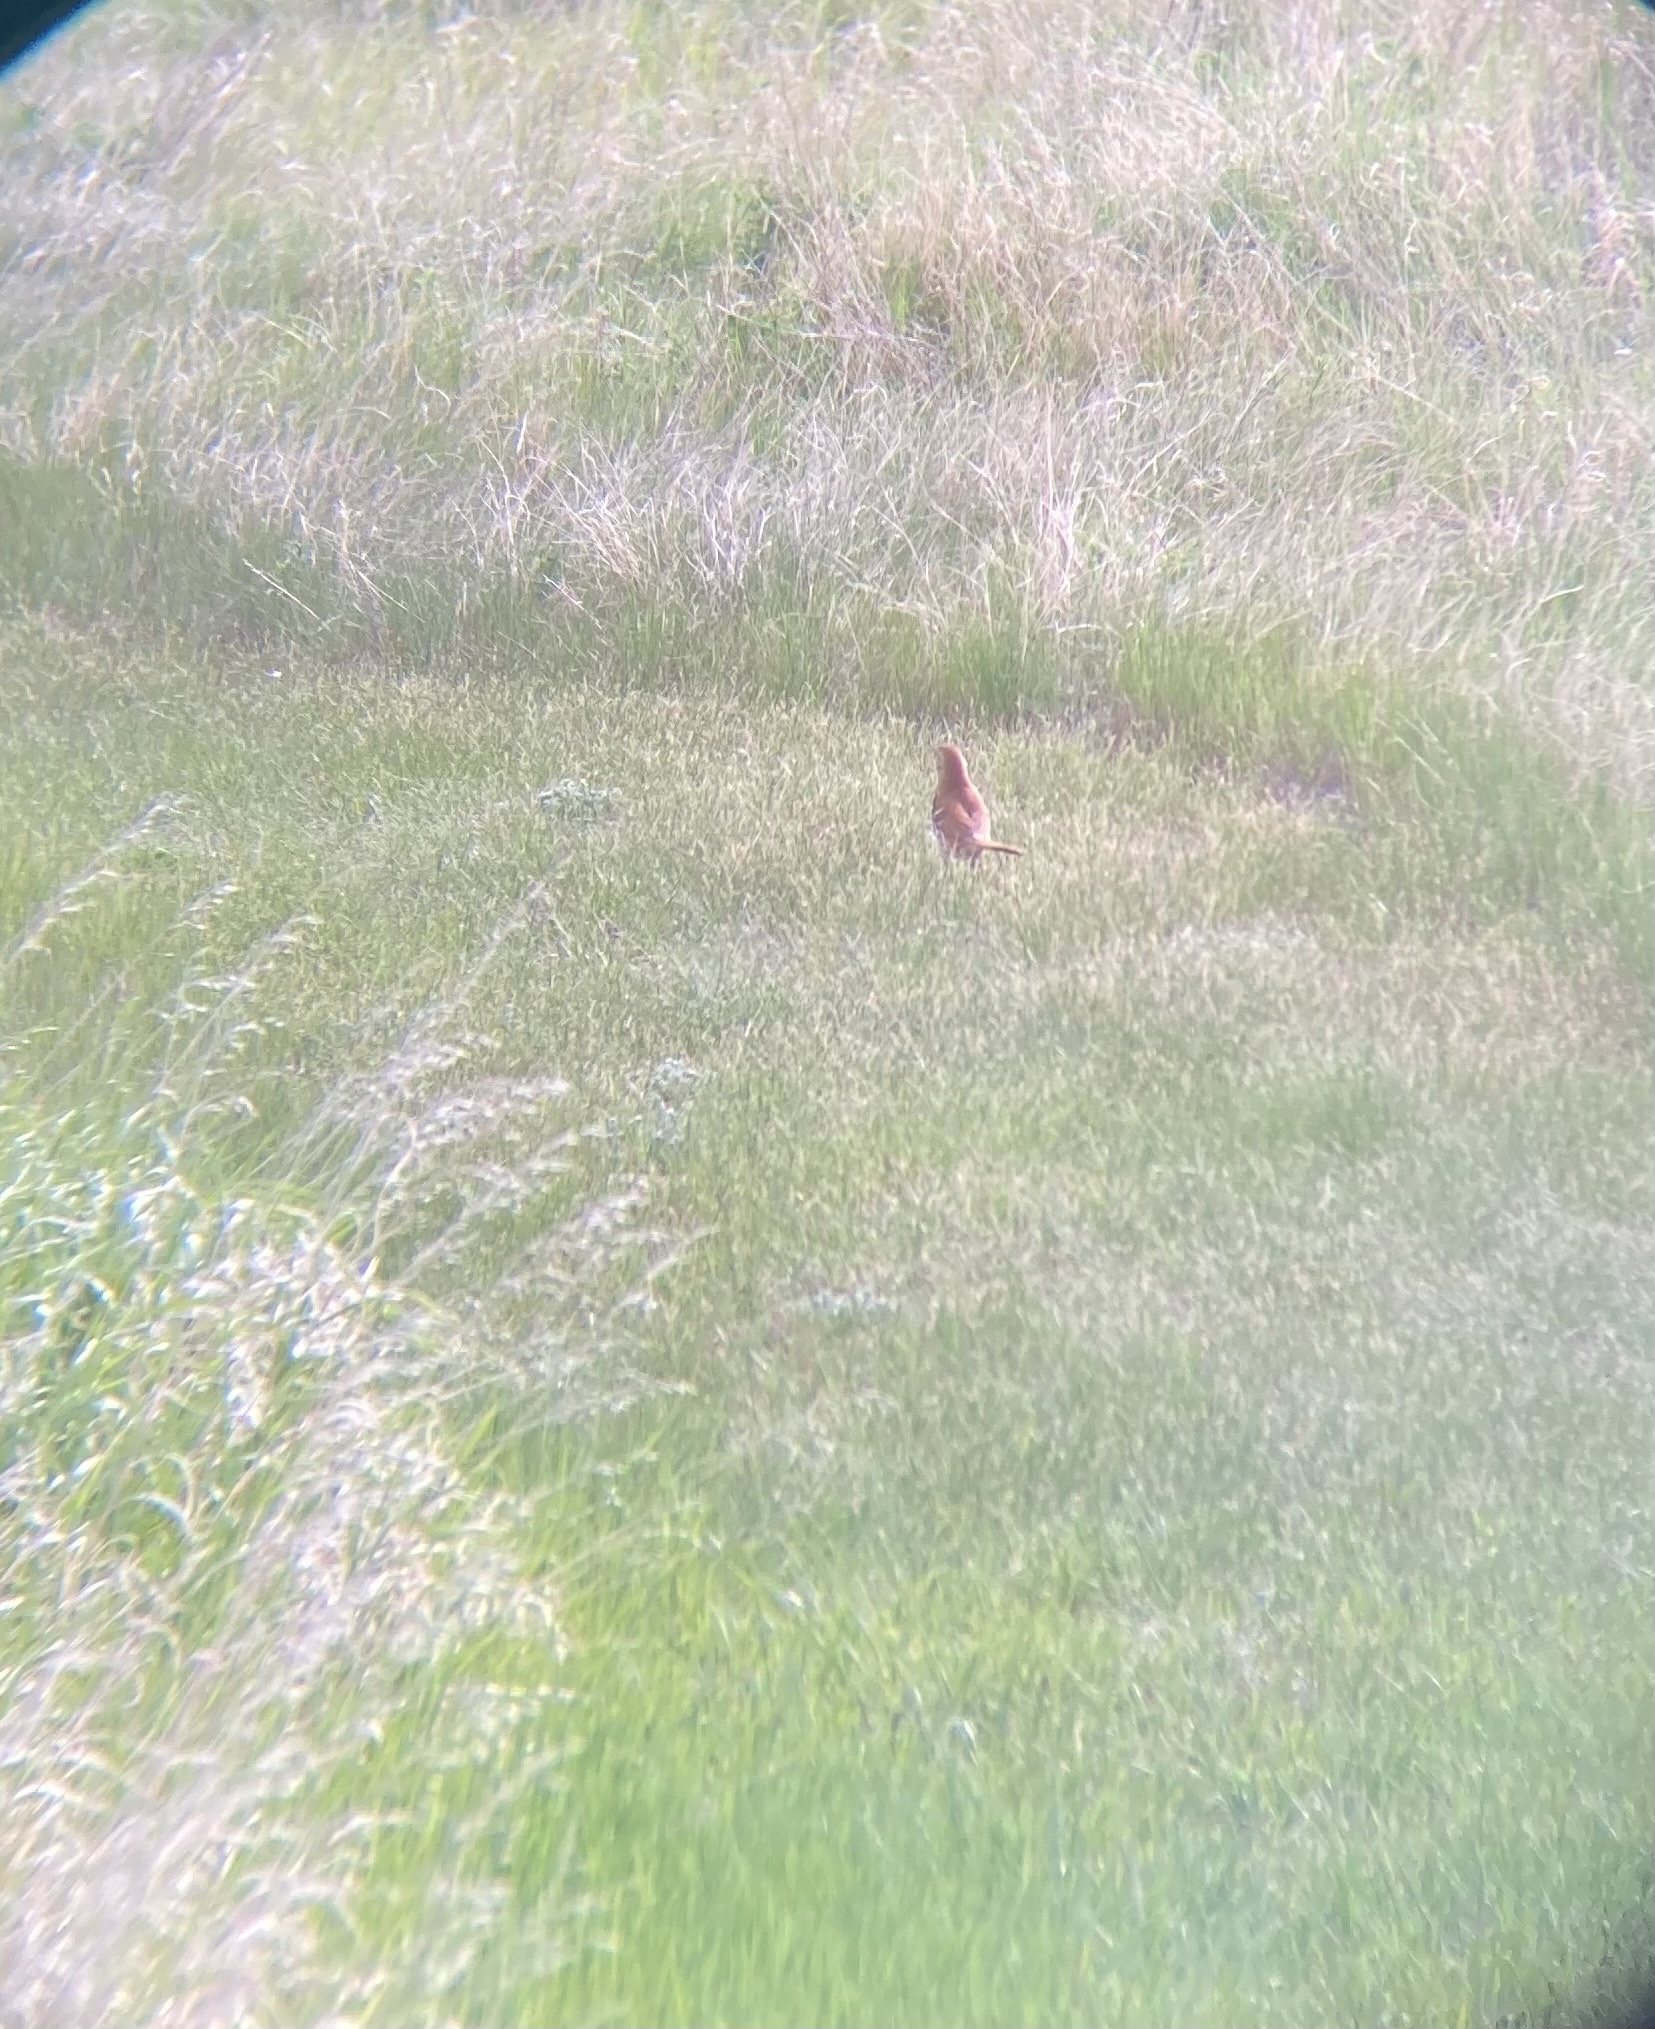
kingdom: Animalia
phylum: Chordata
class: Aves
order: Passeriformes
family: Mimidae
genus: Toxostoma
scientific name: Toxostoma rufum
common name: Brown thrasher
